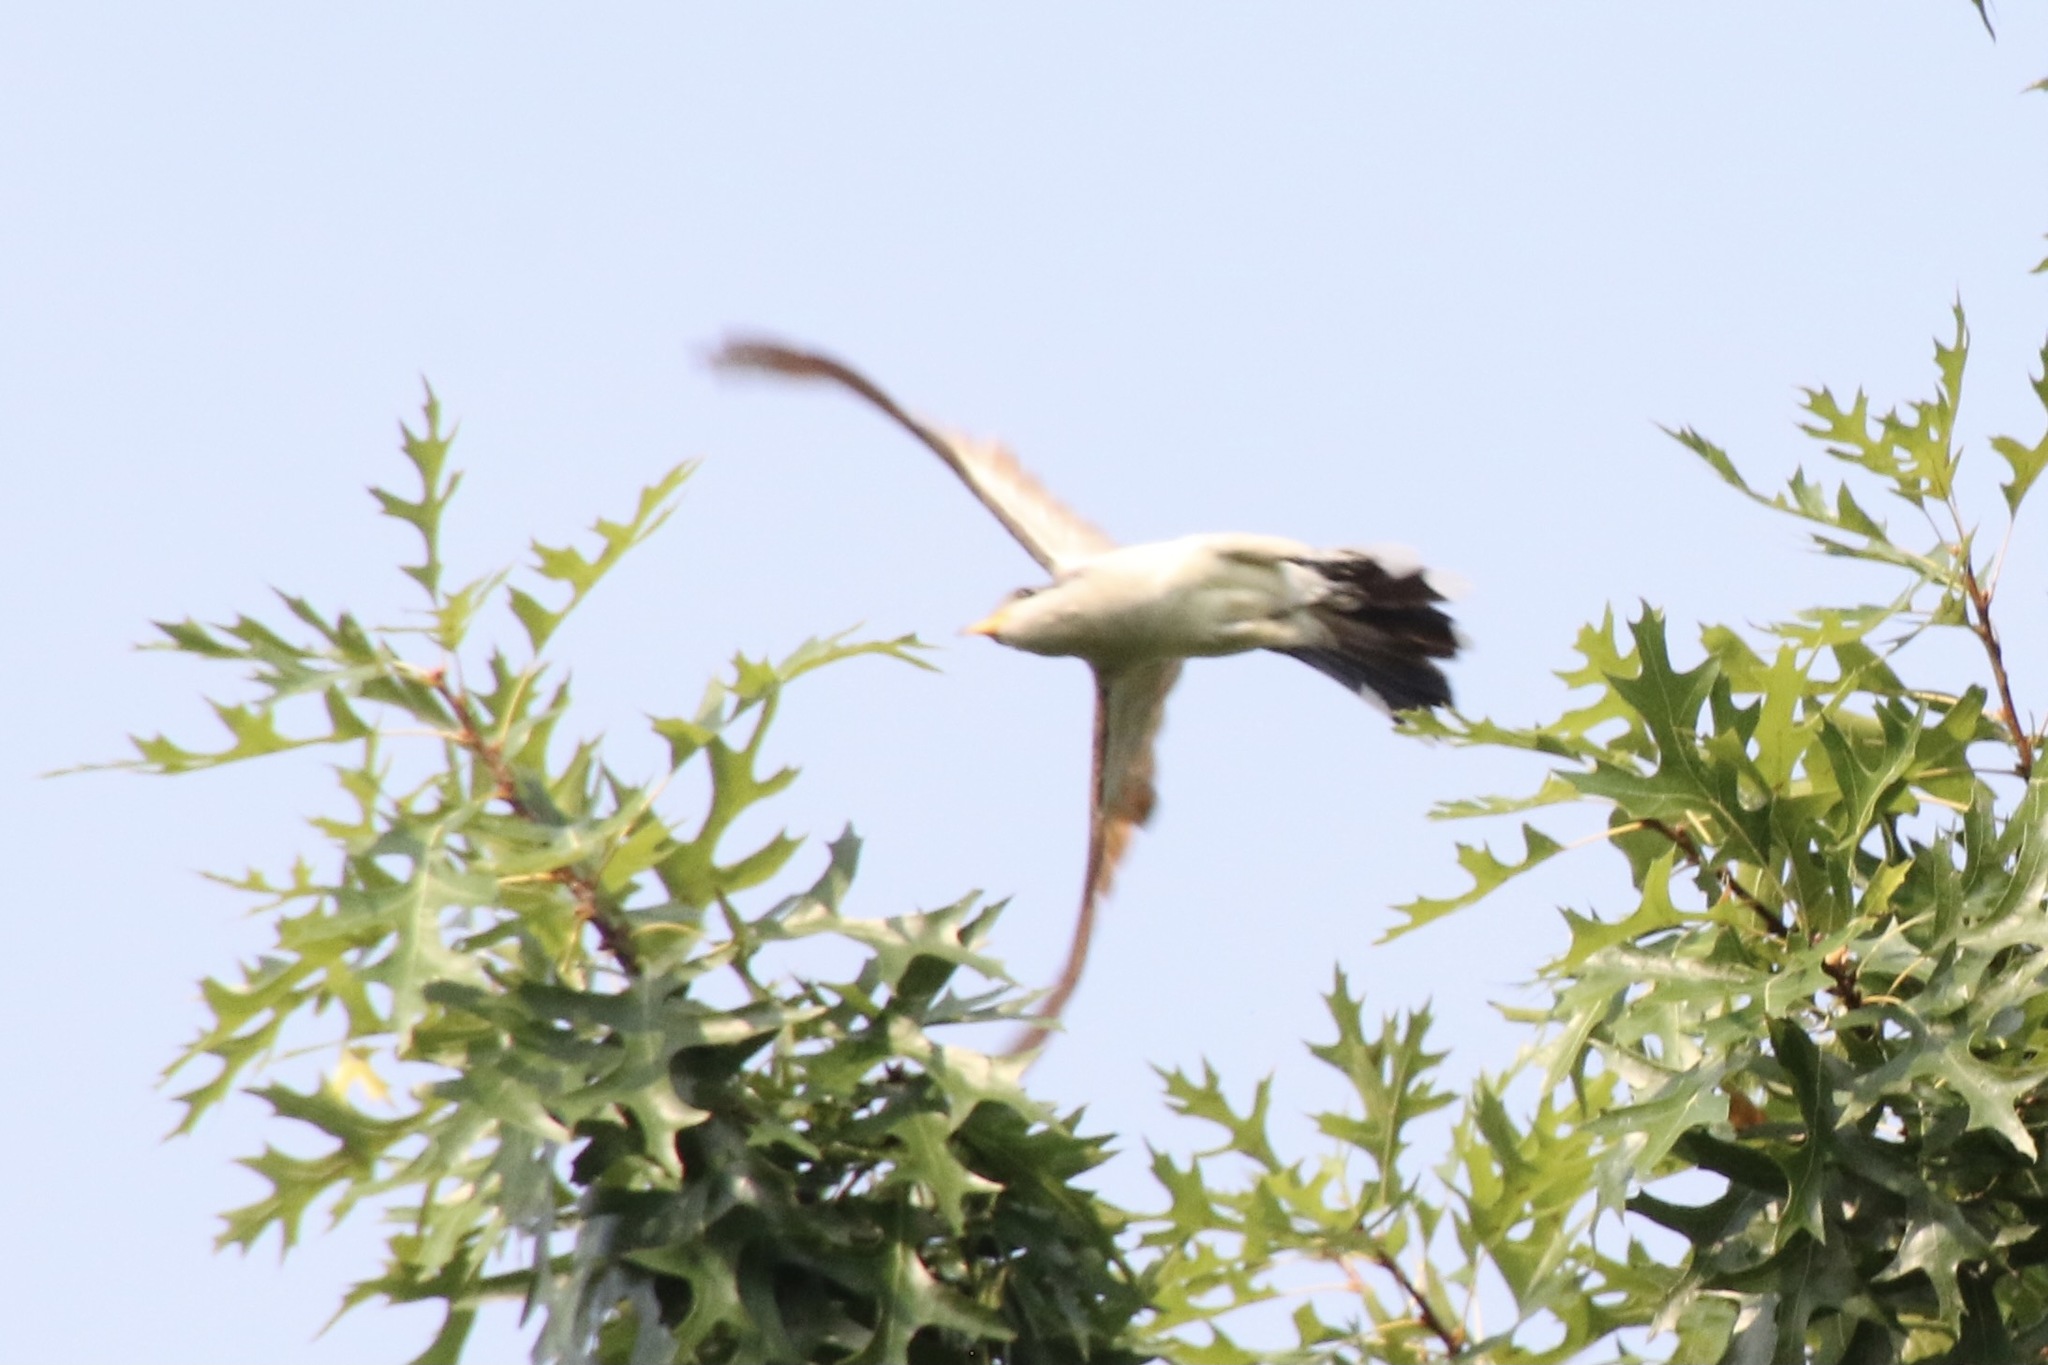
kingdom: Animalia
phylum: Chordata
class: Aves
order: Cuculiformes
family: Cuculidae
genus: Coccyzus
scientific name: Coccyzus americanus
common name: Yellow-billed cuckoo
